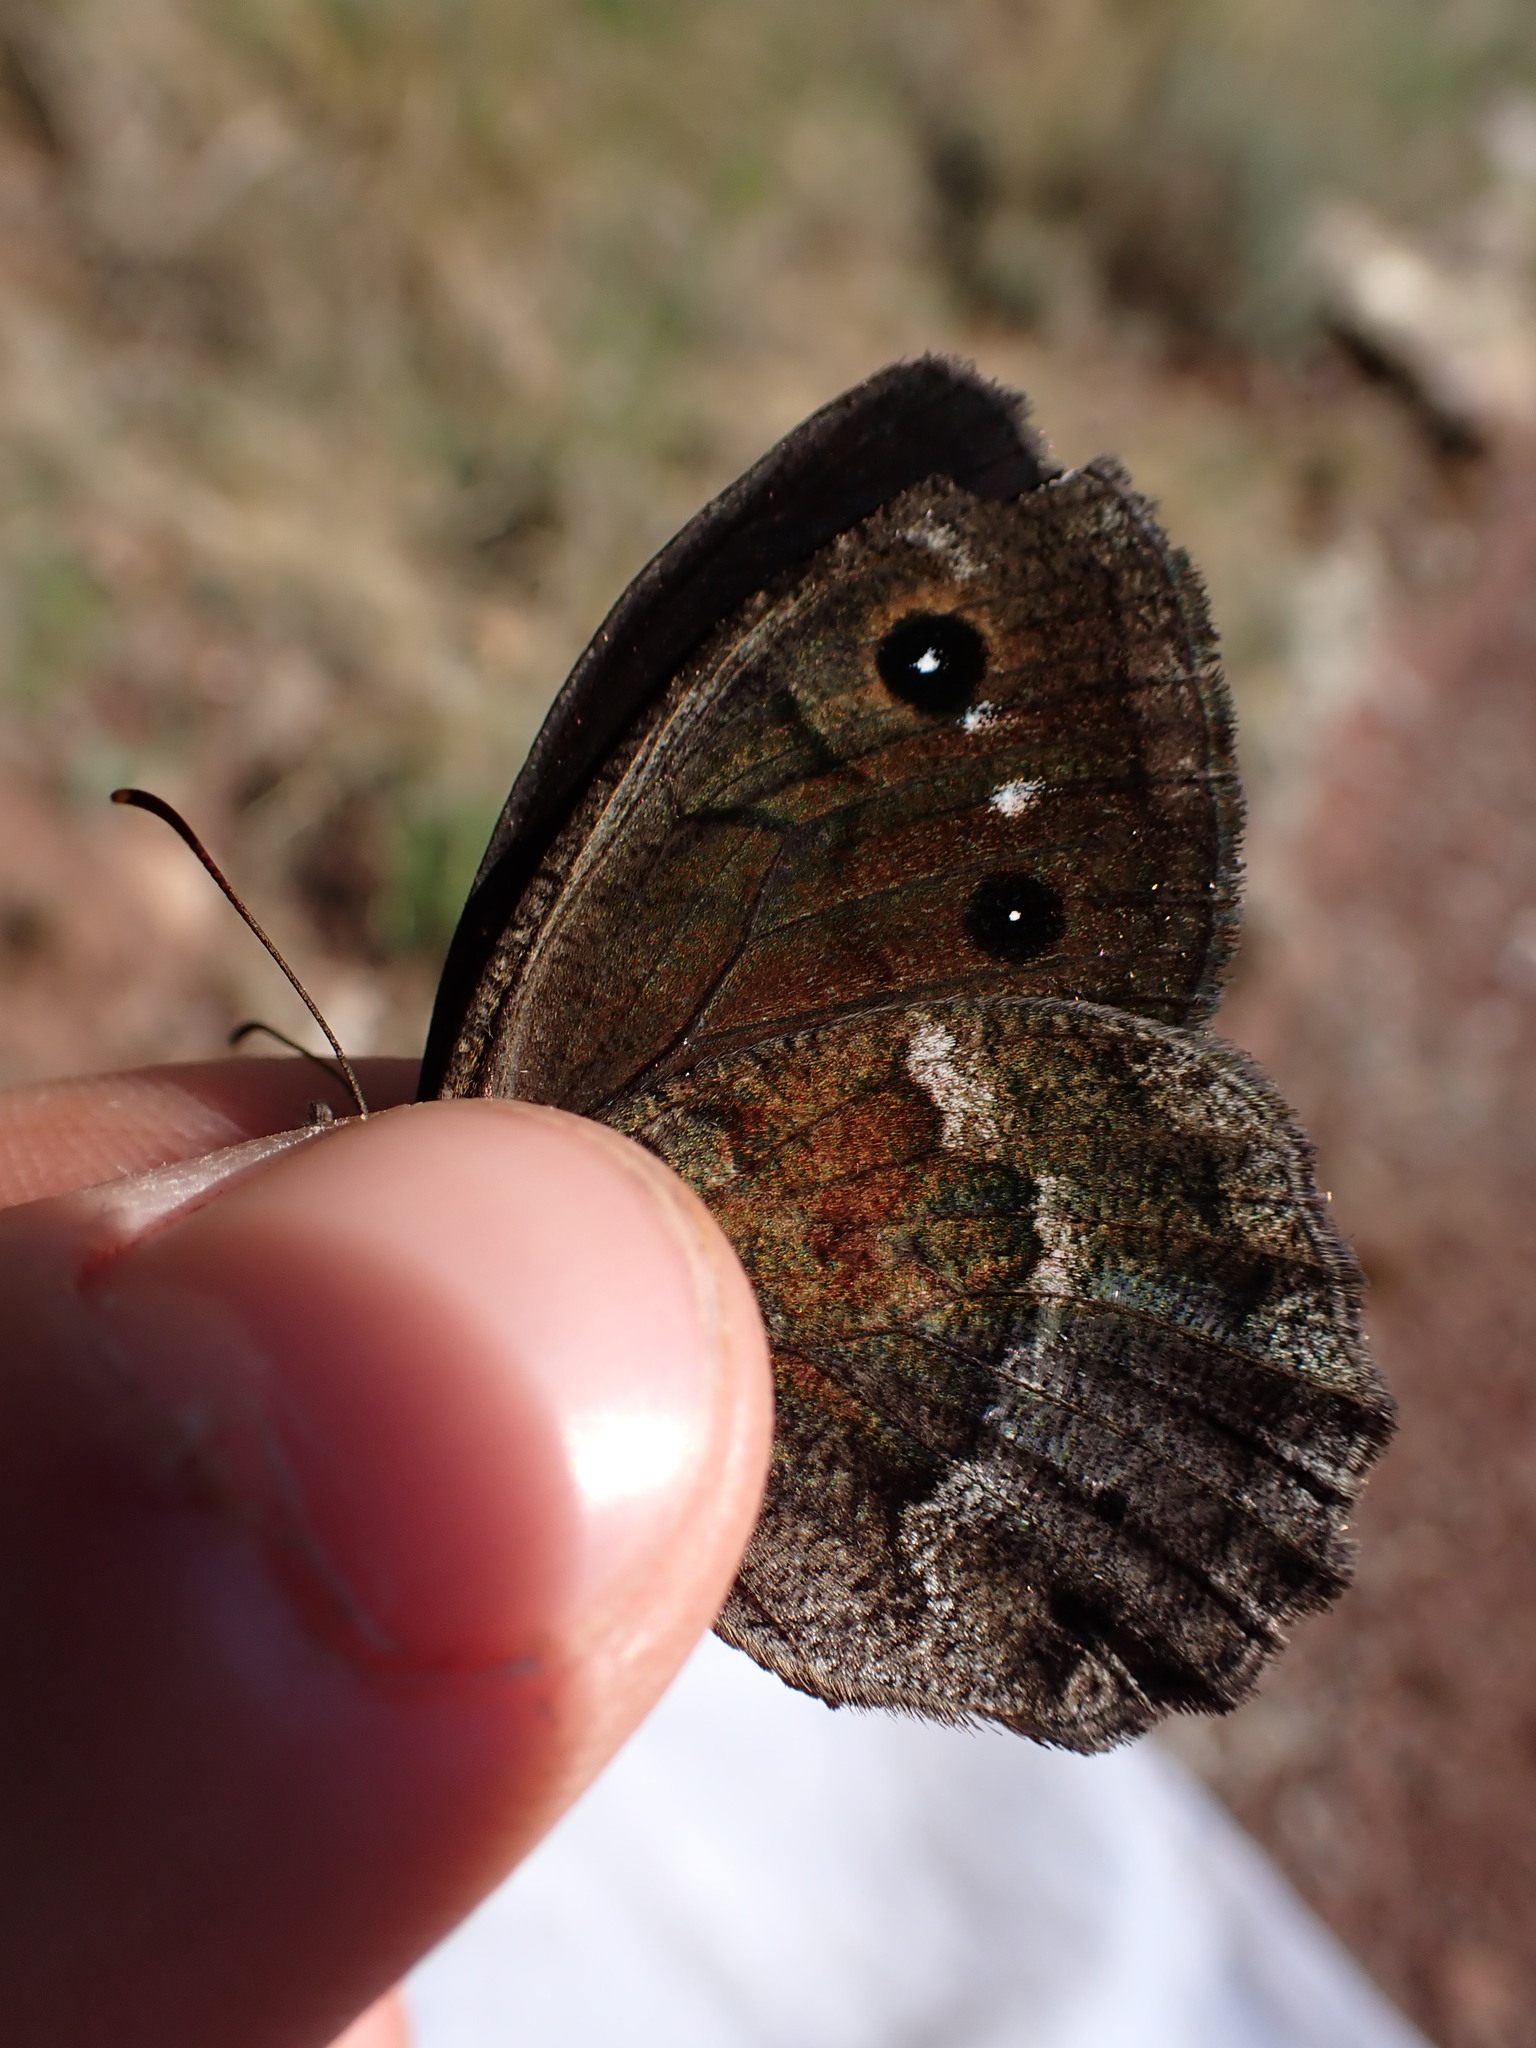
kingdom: Animalia
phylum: Arthropoda
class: Insecta
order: Lepidoptera
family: Nymphalidae
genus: Satyrus
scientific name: Satyrus ferula
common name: Great sooty satyr
